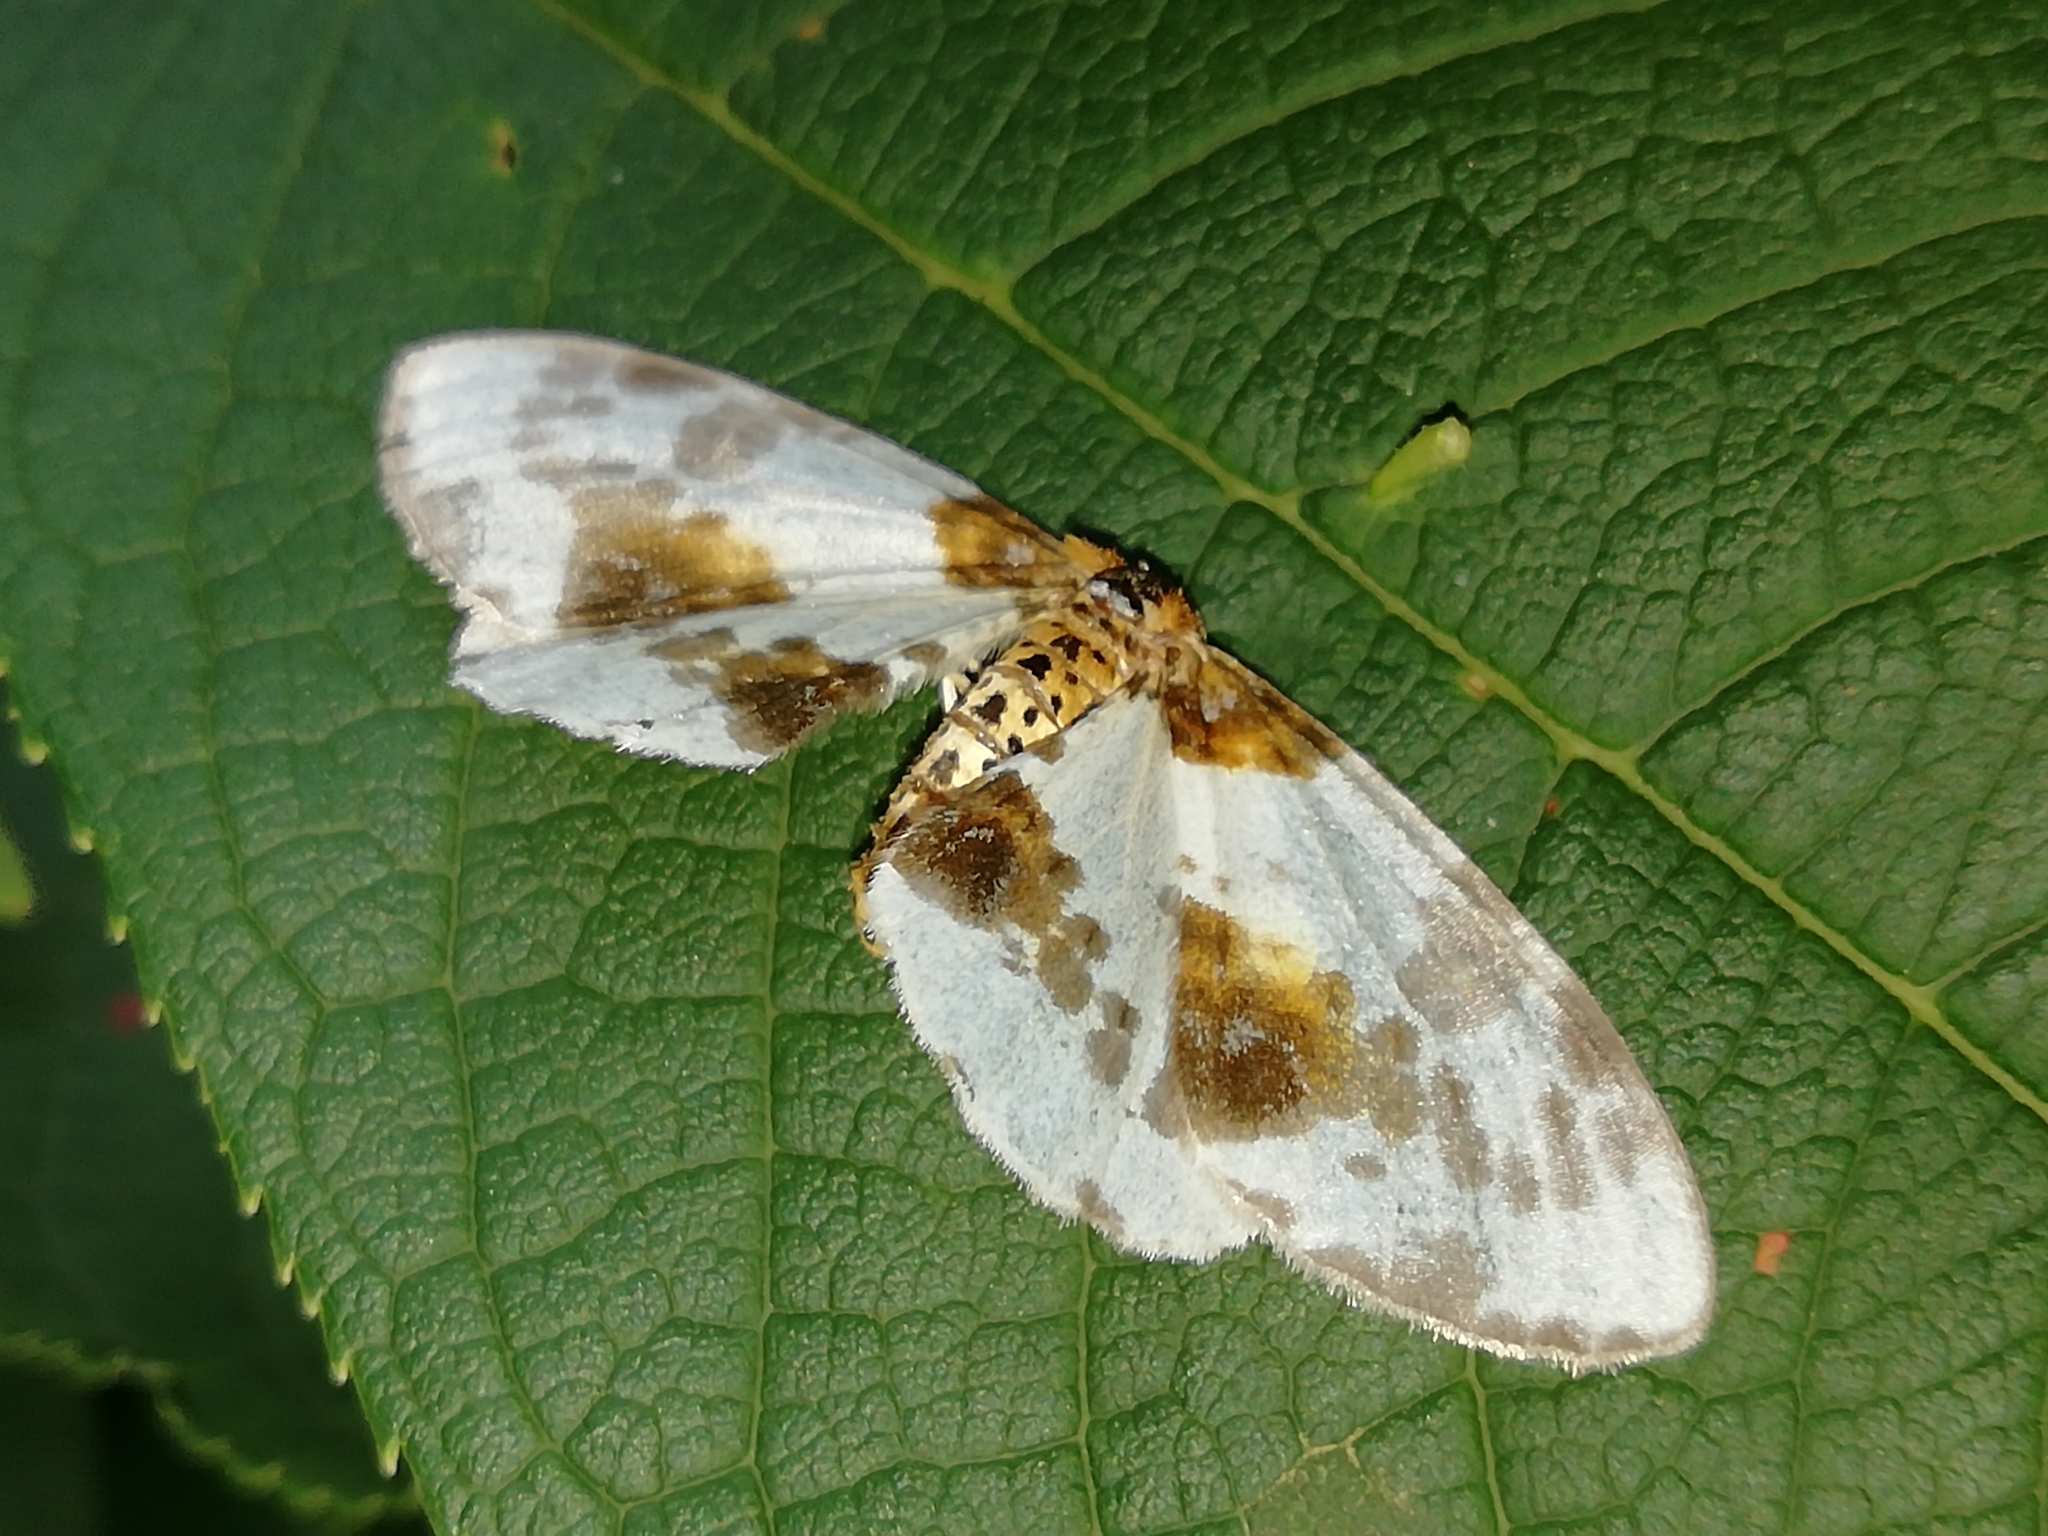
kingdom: Animalia
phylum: Arthropoda
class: Insecta
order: Lepidoptera
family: Geometridae
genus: Abraxas
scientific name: Abraxas sylvata
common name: Clouded magpie
